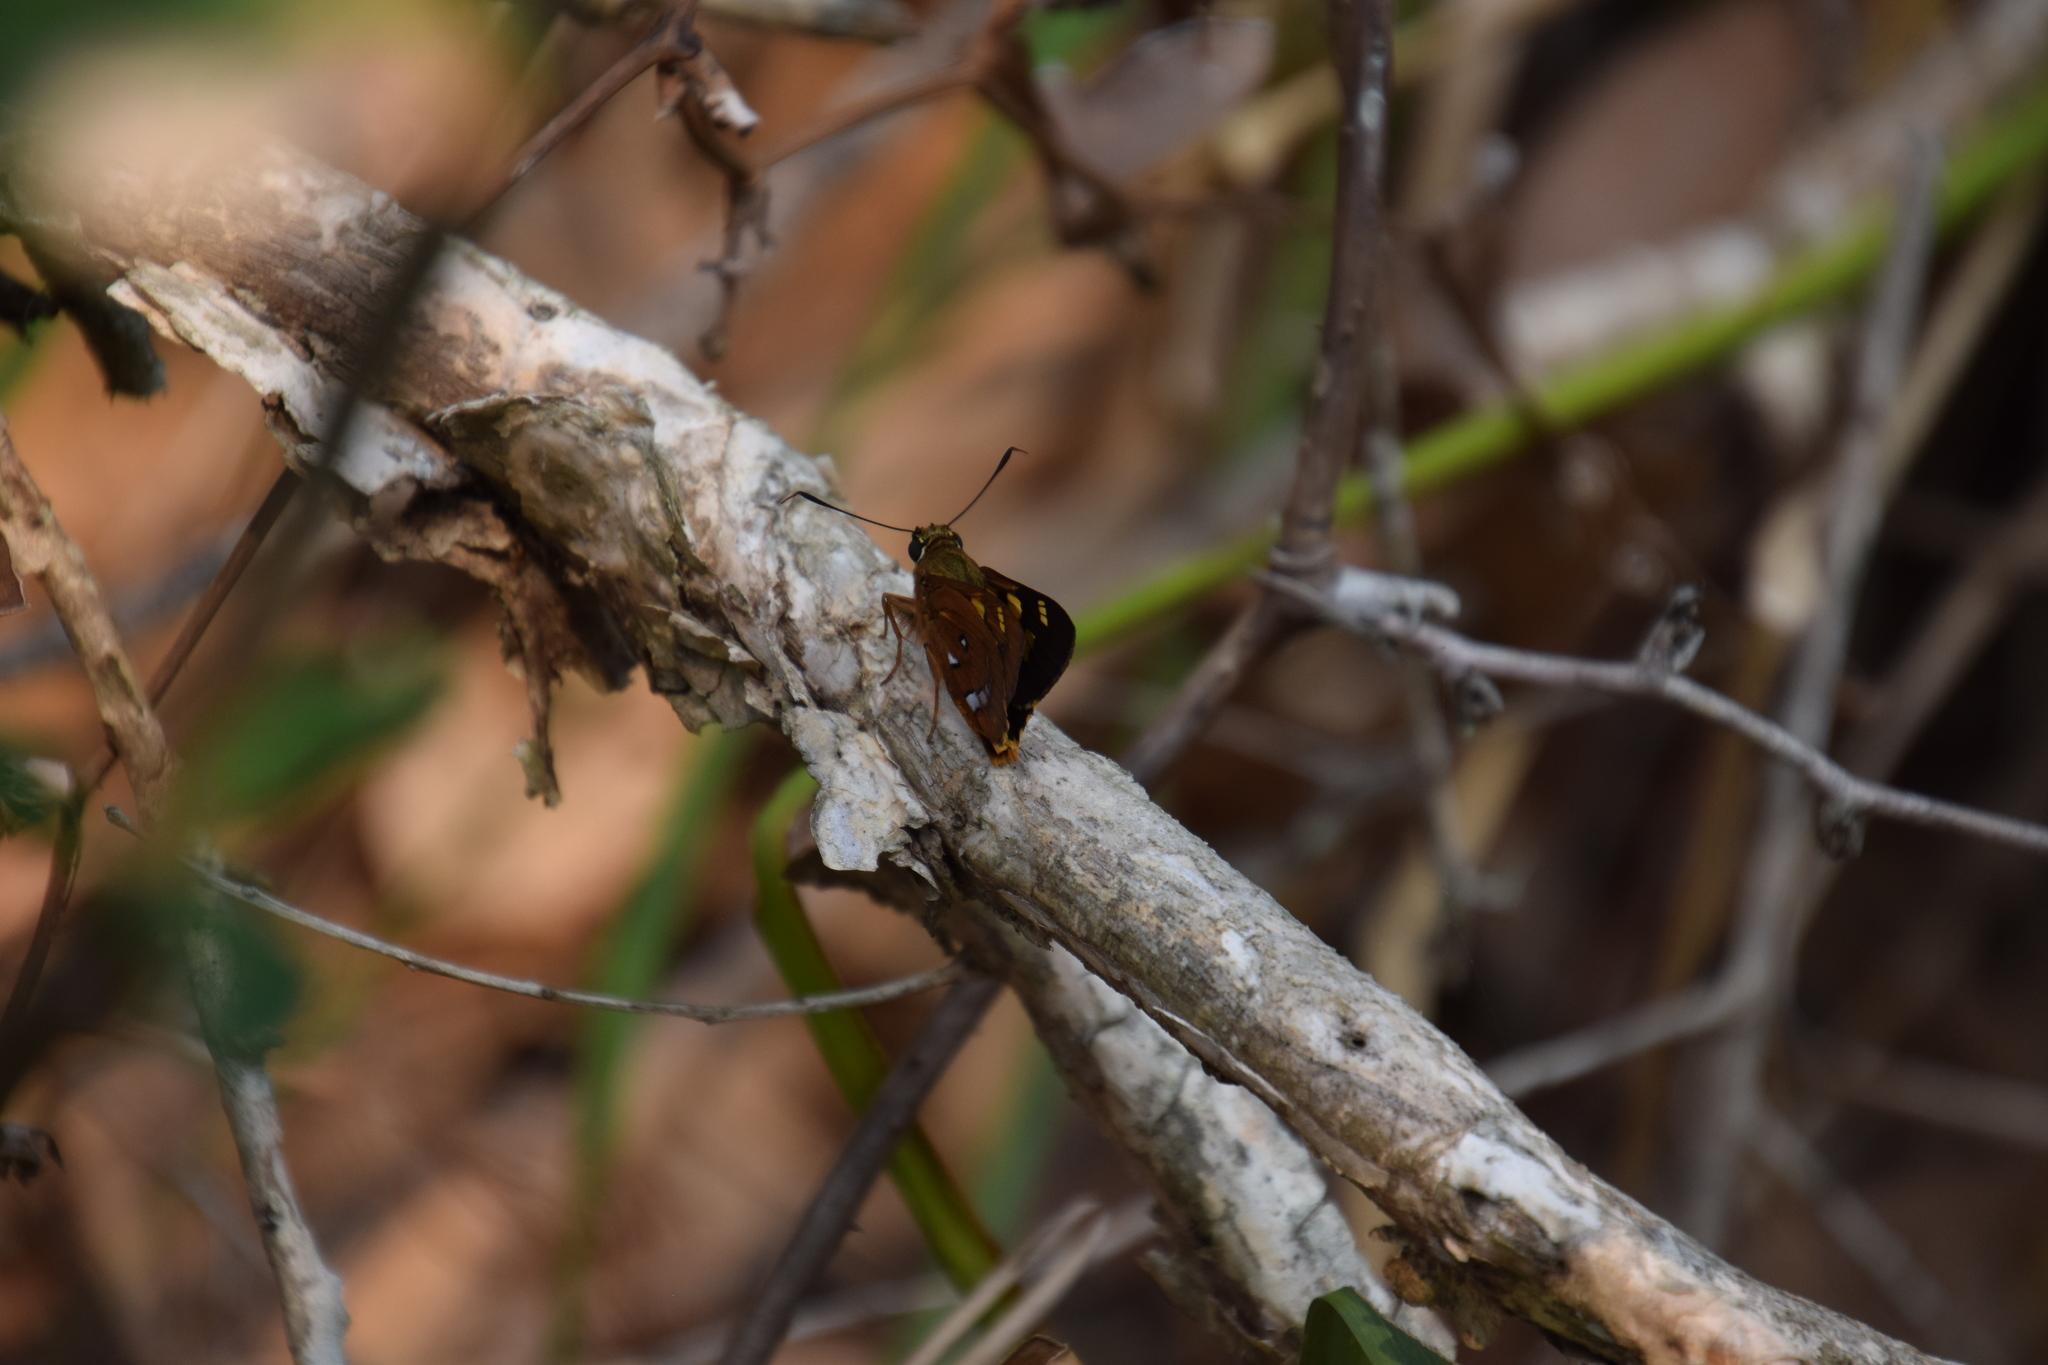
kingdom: Animalia
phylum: Arthropoda
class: Insecta
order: Lepidoptera
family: Hesperiidae
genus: Trapezites
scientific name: Trapezites symmomus
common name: Splendid ochre
